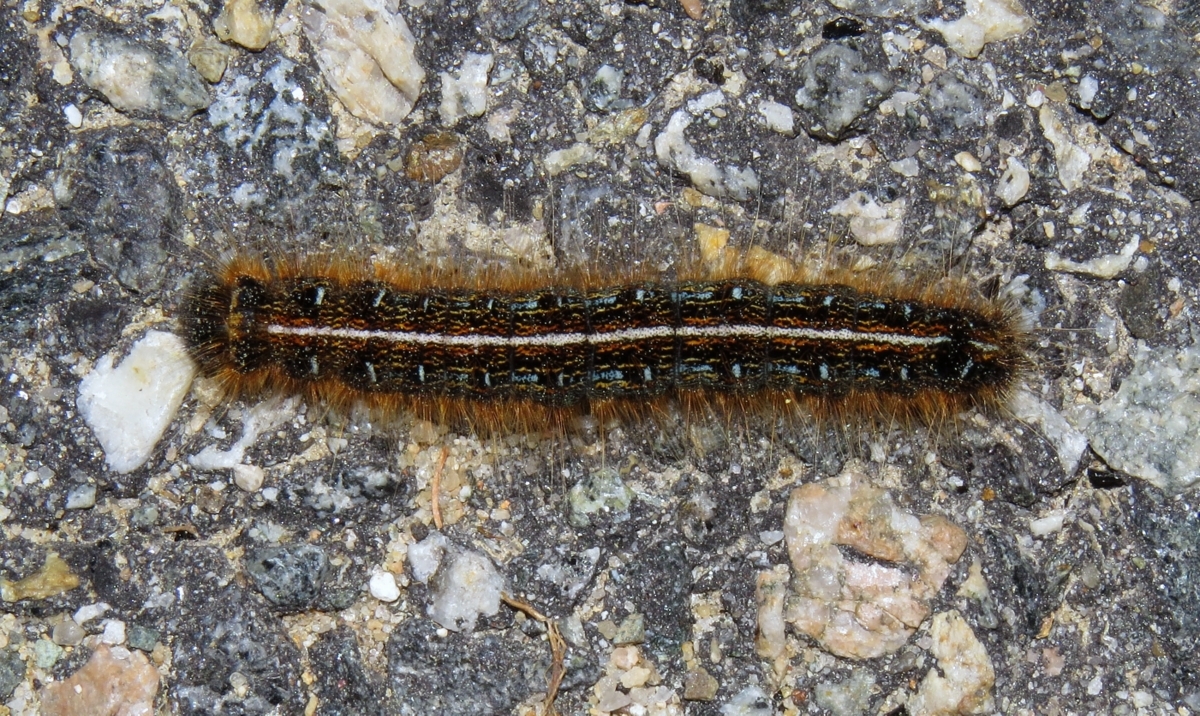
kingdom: Animalia
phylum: Arthropoda
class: Insecta
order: Lepidoptera
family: Lasiocampidae
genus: Malacosoma
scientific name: Malacosoma americana
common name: Eastern tent caterpillar moth
